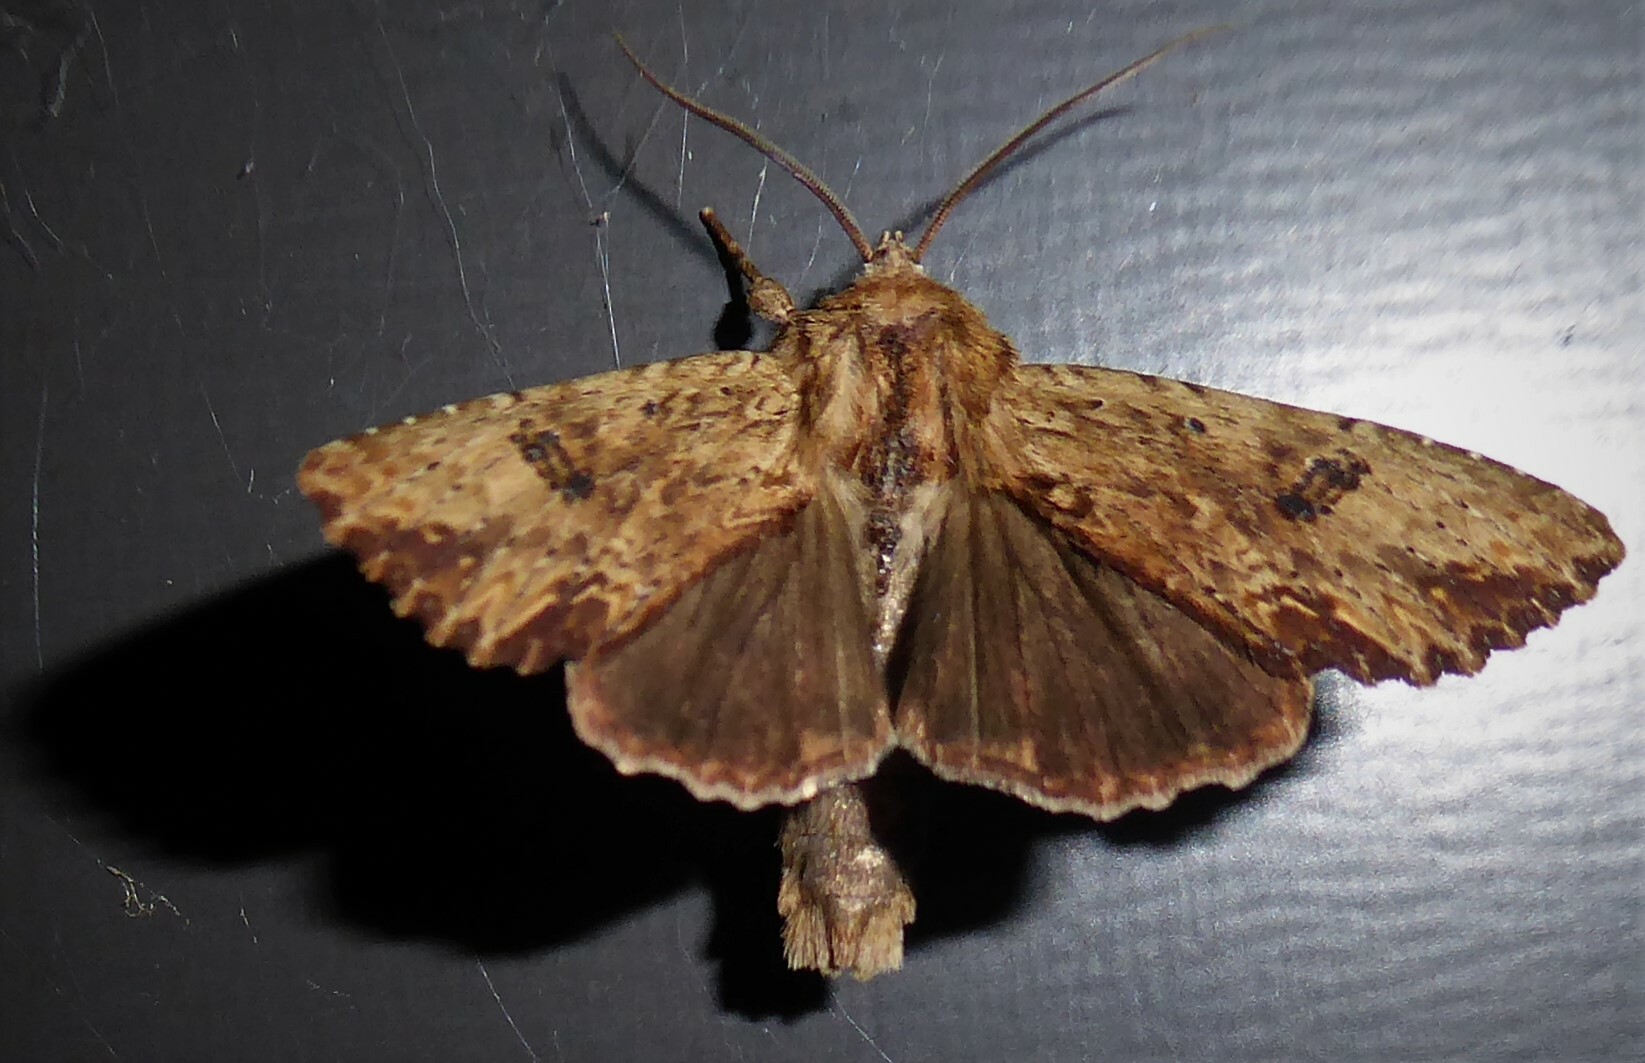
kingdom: Animalia
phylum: Arthropoda
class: Insecta
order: Lepidoptera
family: Noctuidae
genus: Ichneutica
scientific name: Ichneutica
